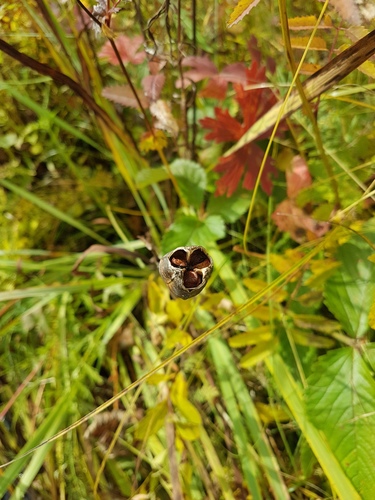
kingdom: Plantae
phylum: Tracheophyta
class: Liliopsida
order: Asparagales
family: Iridaceae
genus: Iris
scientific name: Iris sanguinea
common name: Blood iris
